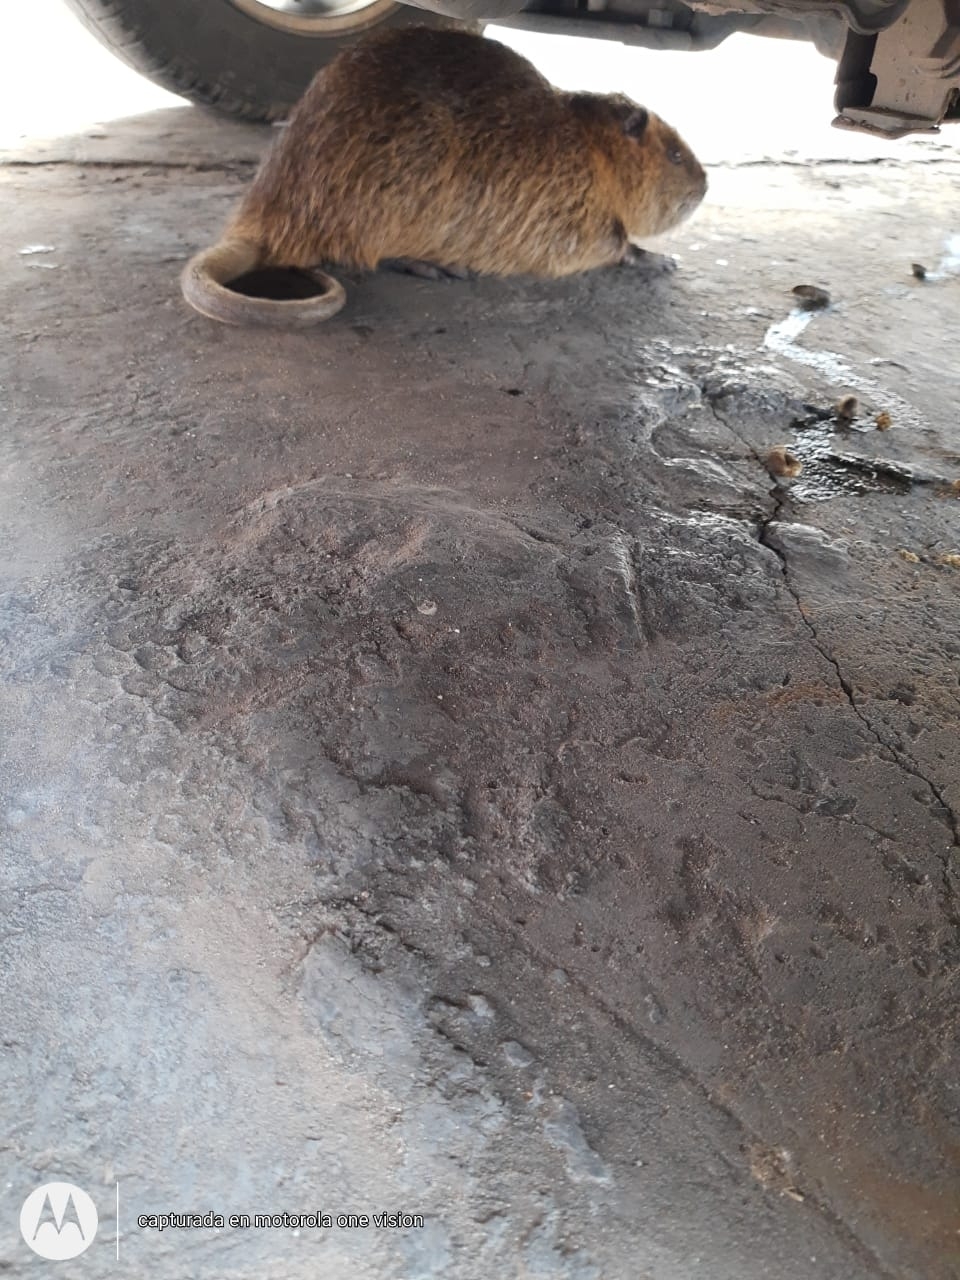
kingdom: Animalia
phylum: Chordata
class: Mammalia
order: Rodentia
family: Myocastoridae
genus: Myocastor
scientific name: Myocastor coypus
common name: Coypu
